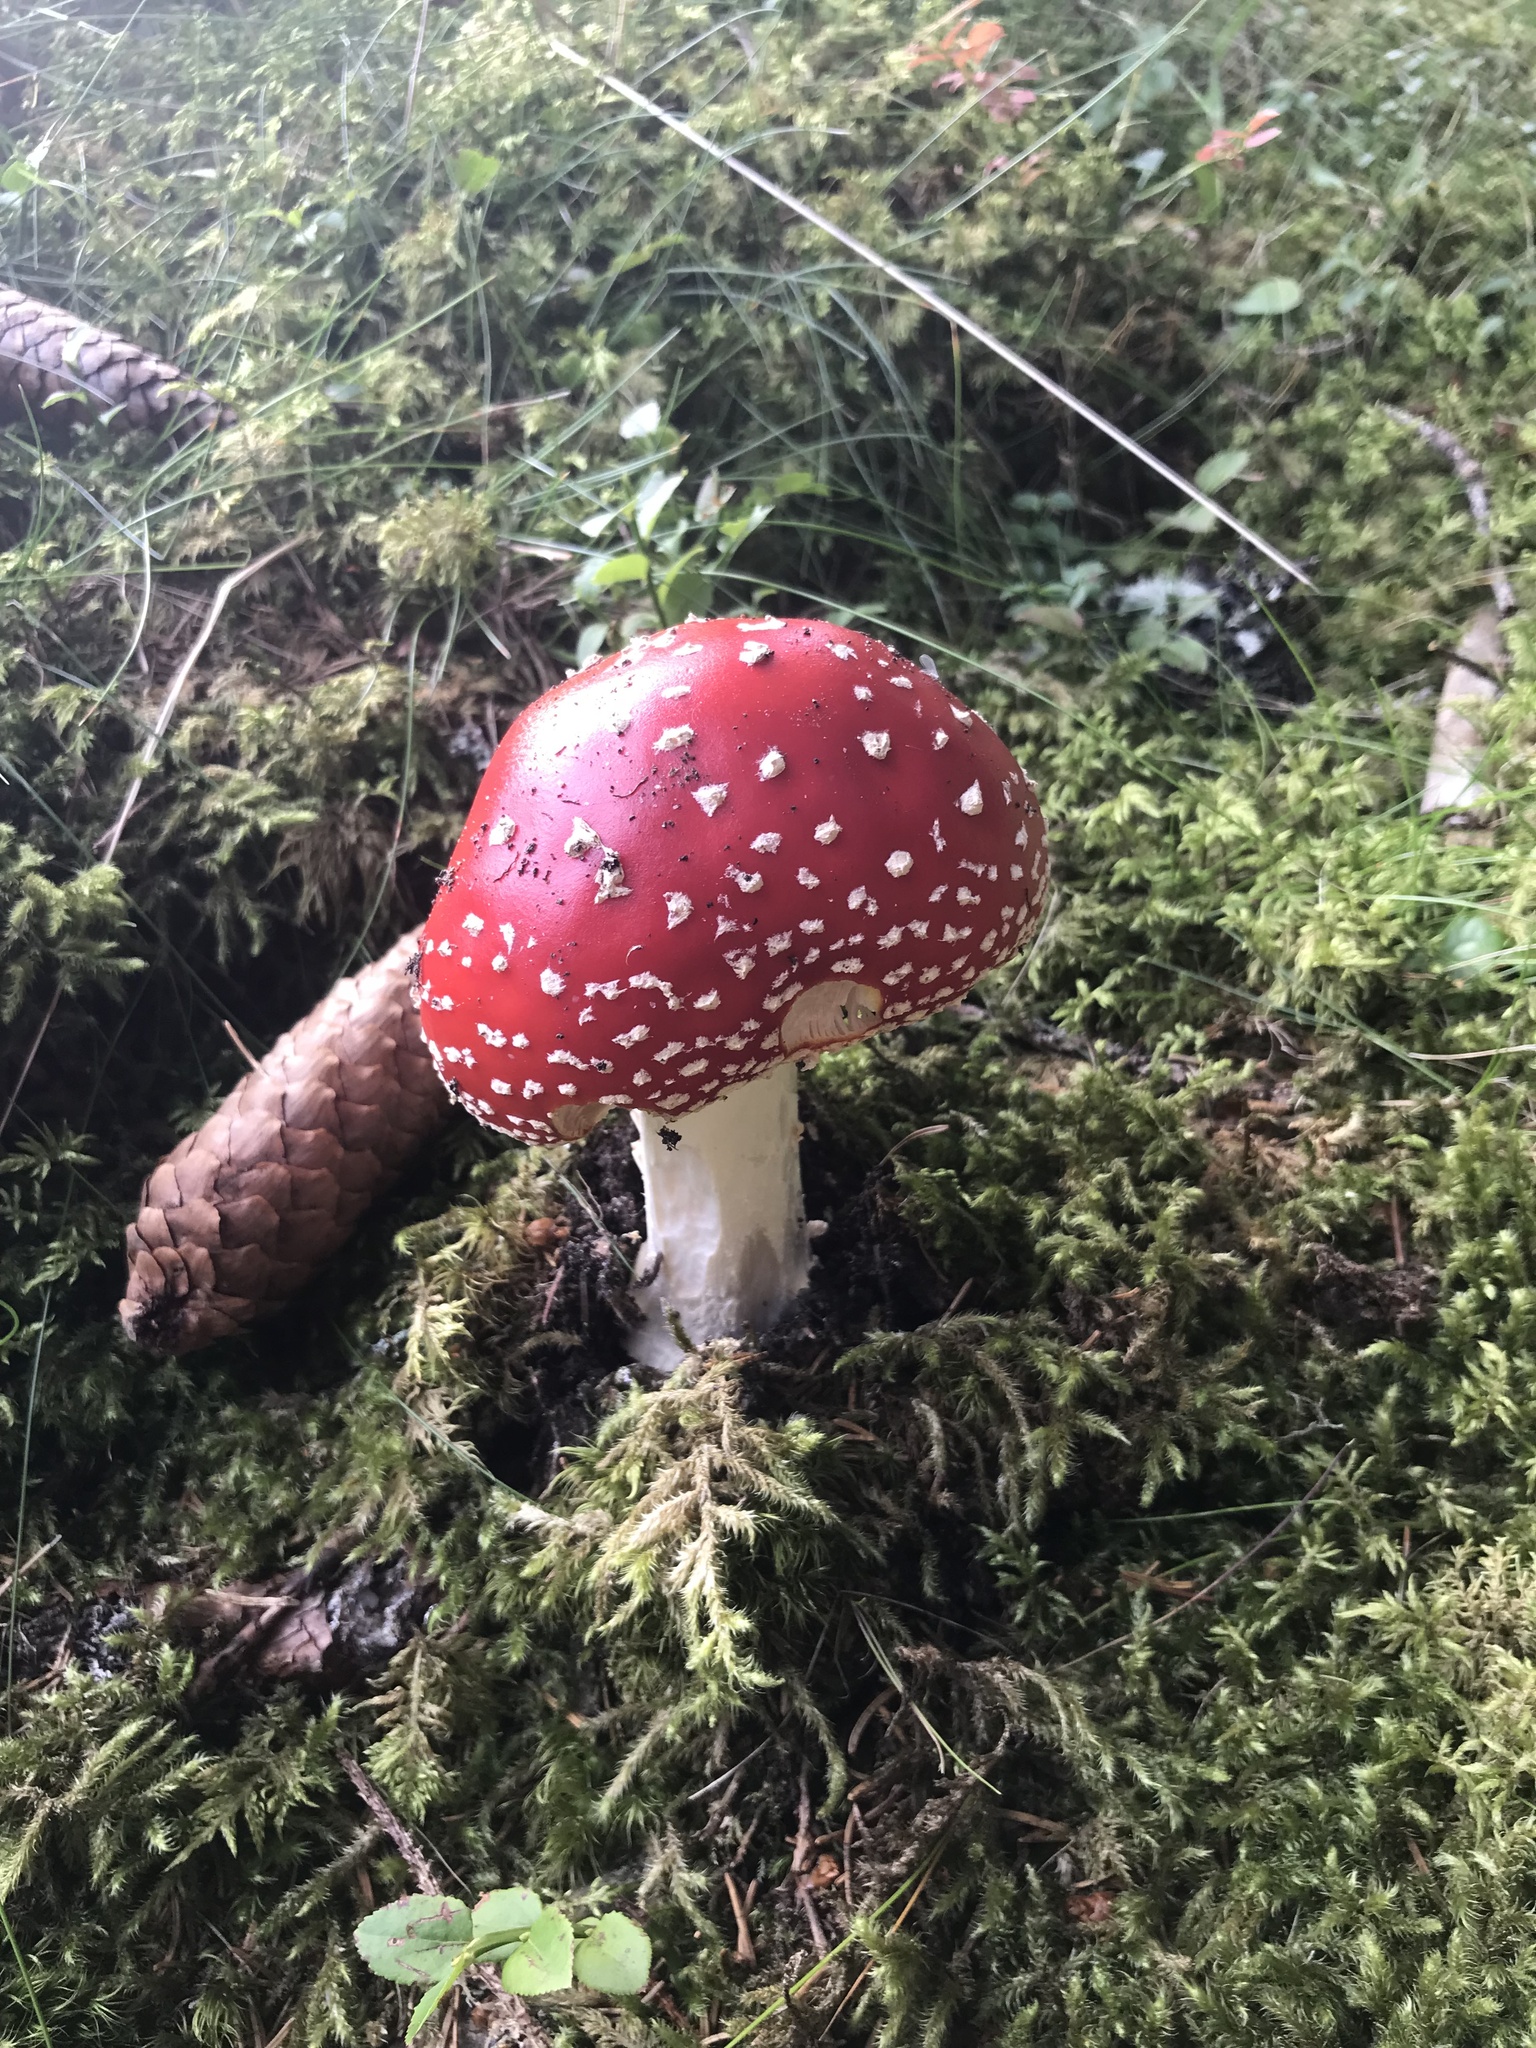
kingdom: Fungi
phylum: Basidiomycota
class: Agaricomycetes
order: Agaricales
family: Amanitaceae
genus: Amanita
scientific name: Amanita muscaria
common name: Fly agaric
